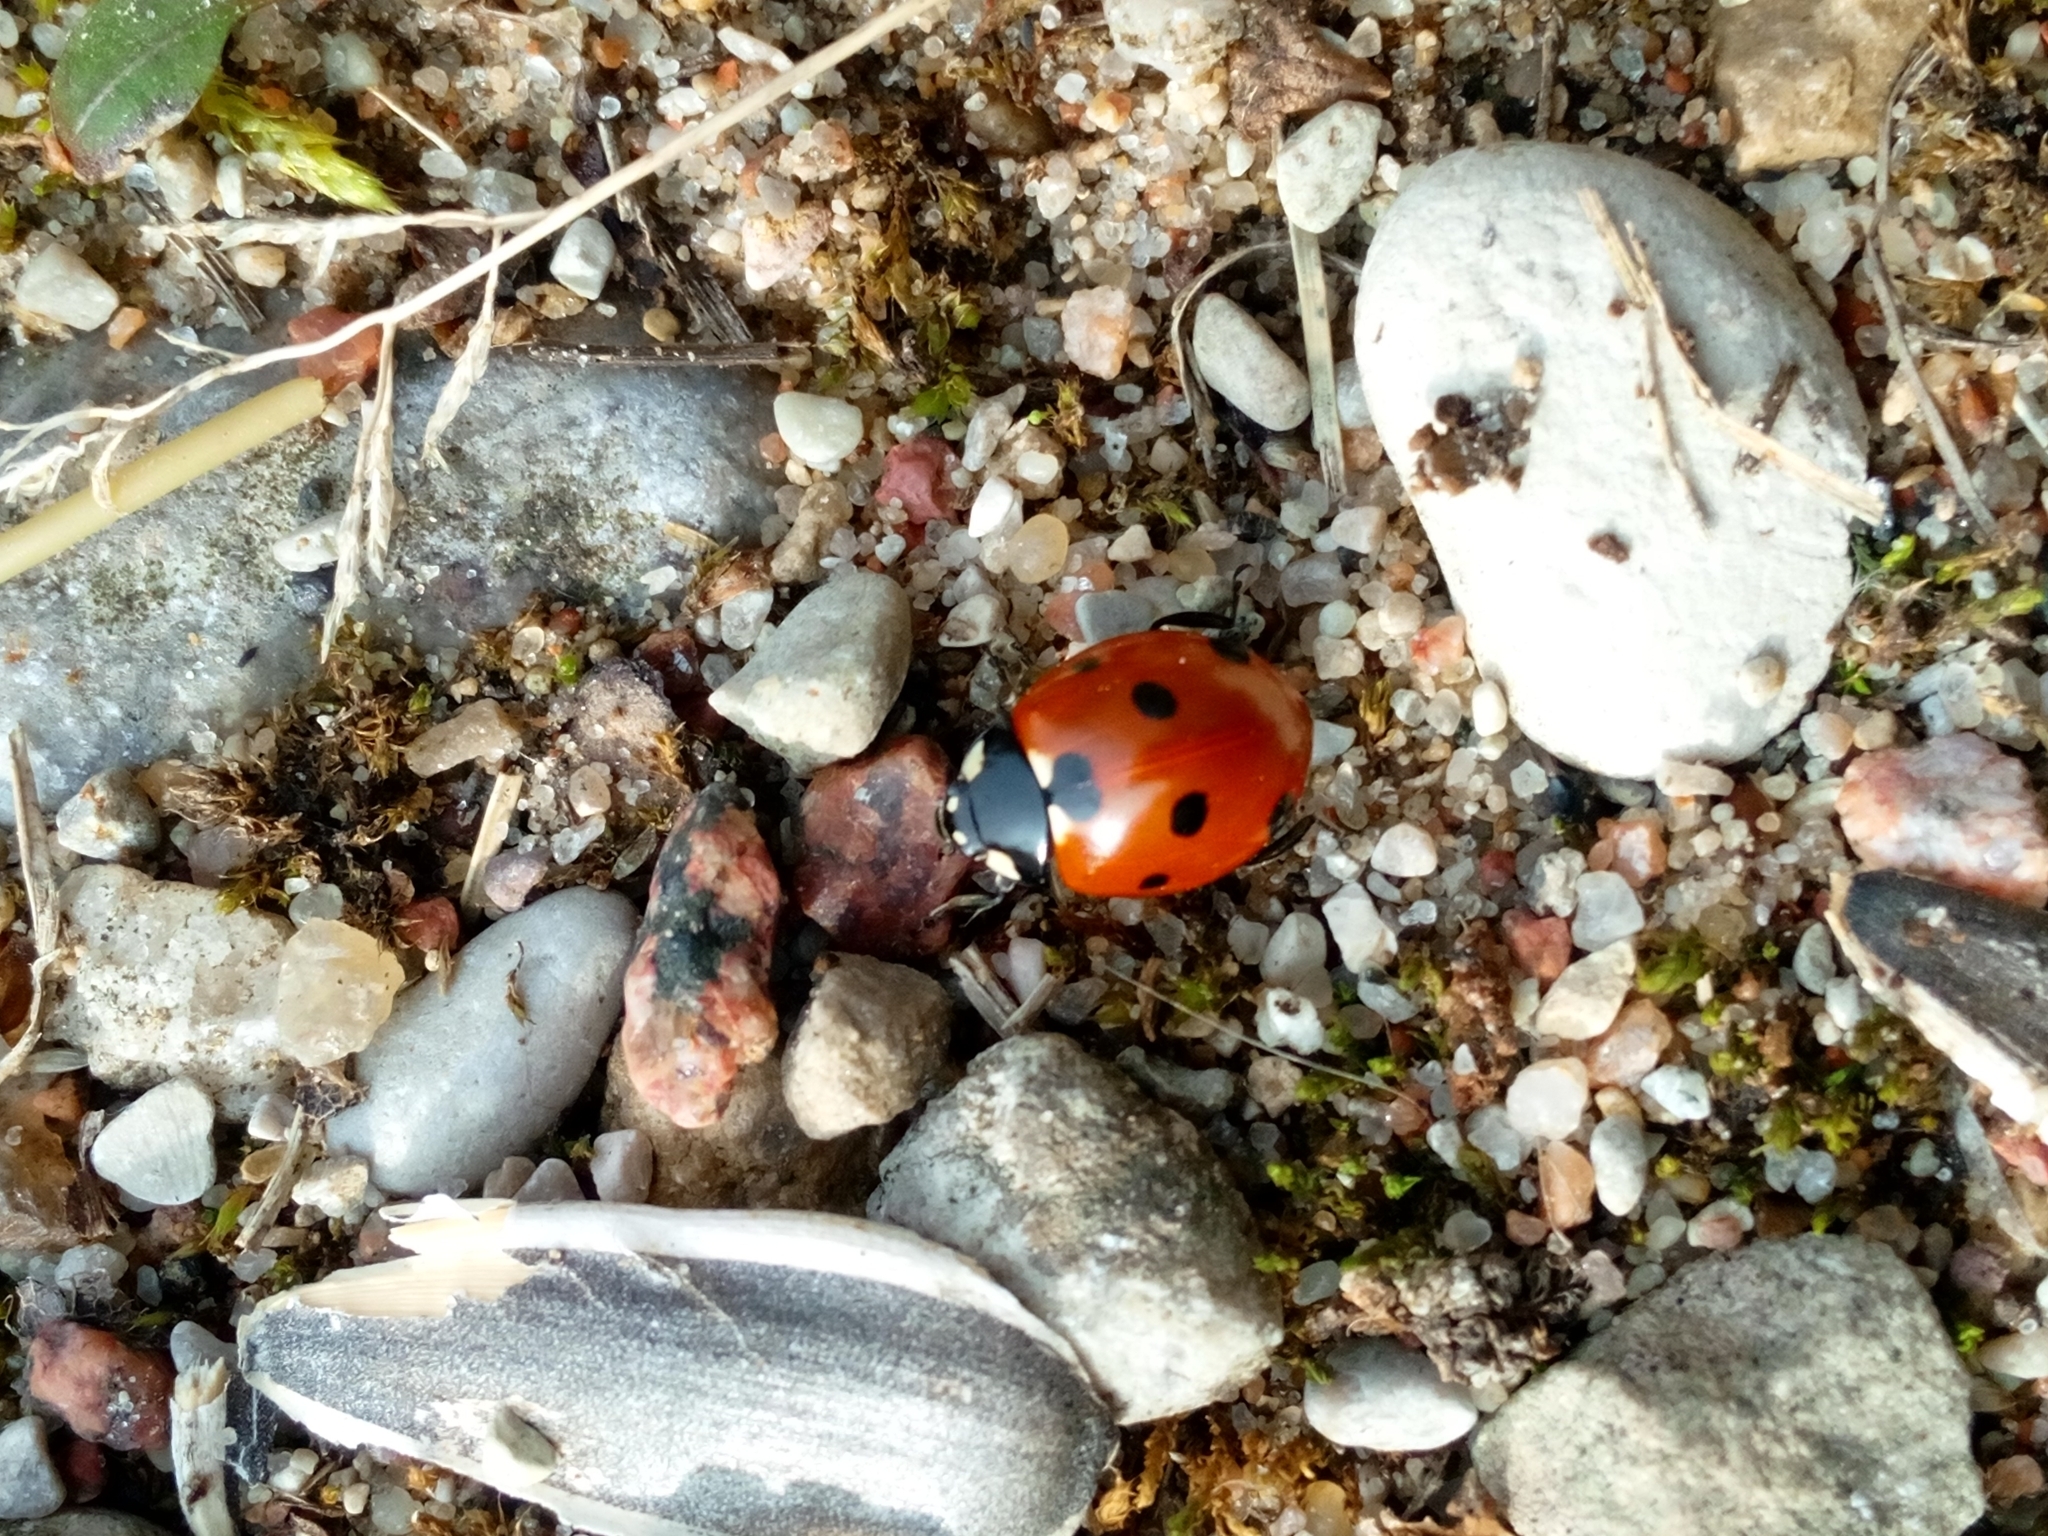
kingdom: Animalia
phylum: Arthropoda
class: Insecta
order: Coleoptera
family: Coccinellidae
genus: Coccinella
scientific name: Coccinella septempunctata
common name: Sevenspotted lady beetle
